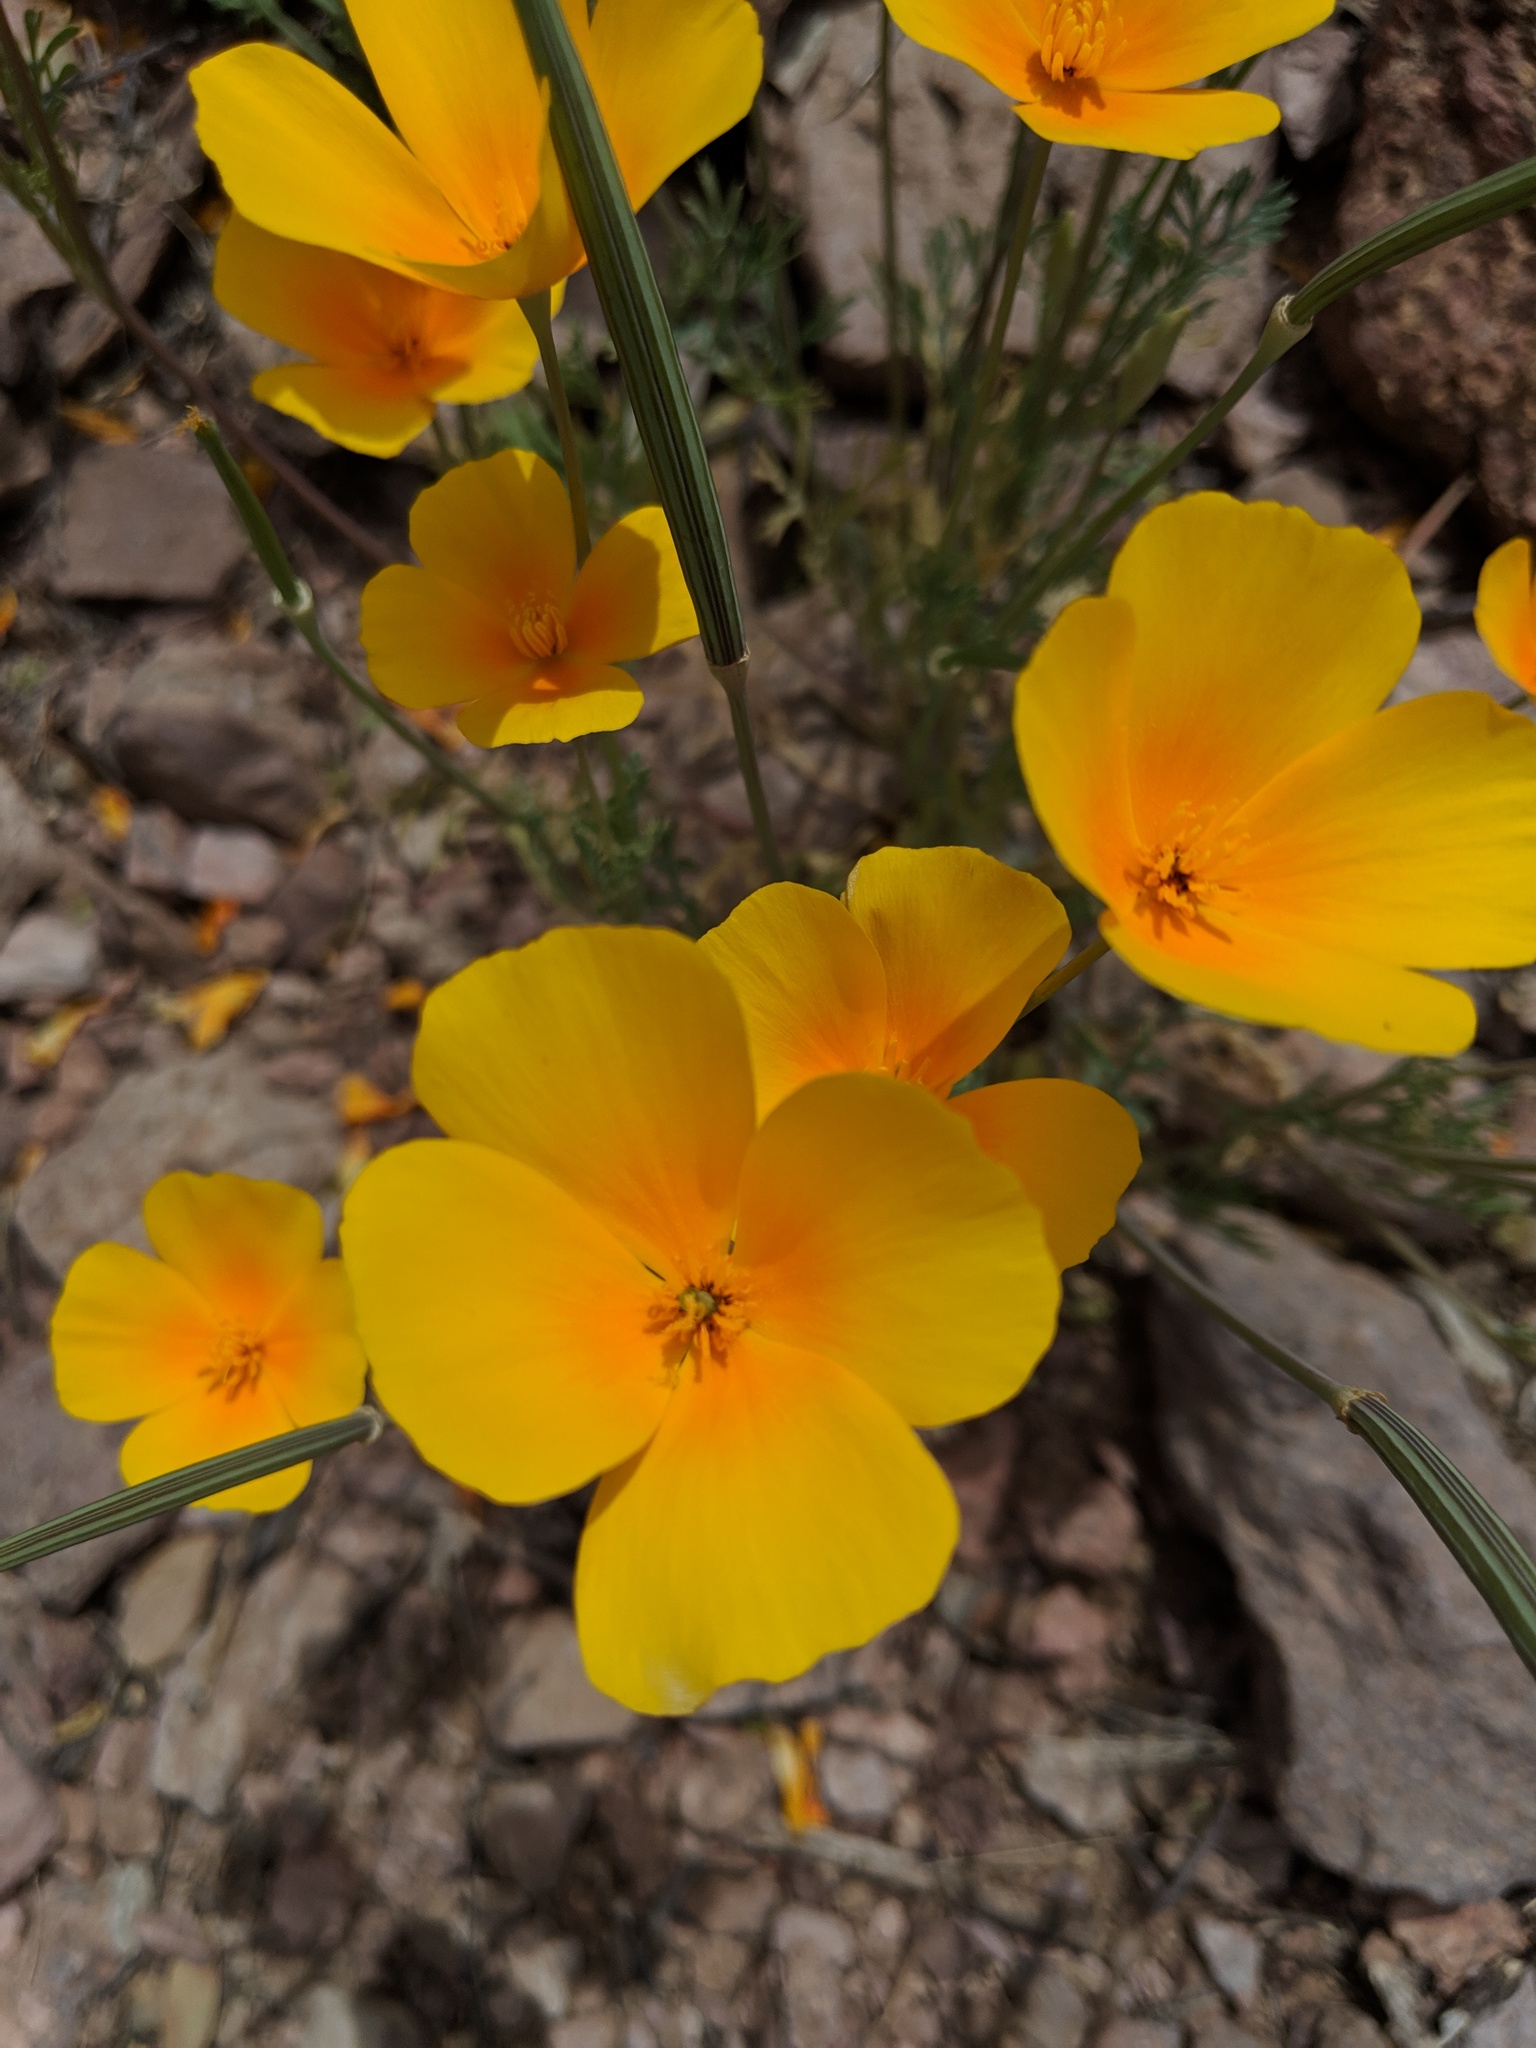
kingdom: Plantae
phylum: Tracheophyta
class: Magnoliopsida
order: Ranunculales
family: Papaveraceae
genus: Eschscholzia
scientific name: Eschscholzia californica
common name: California poppy
